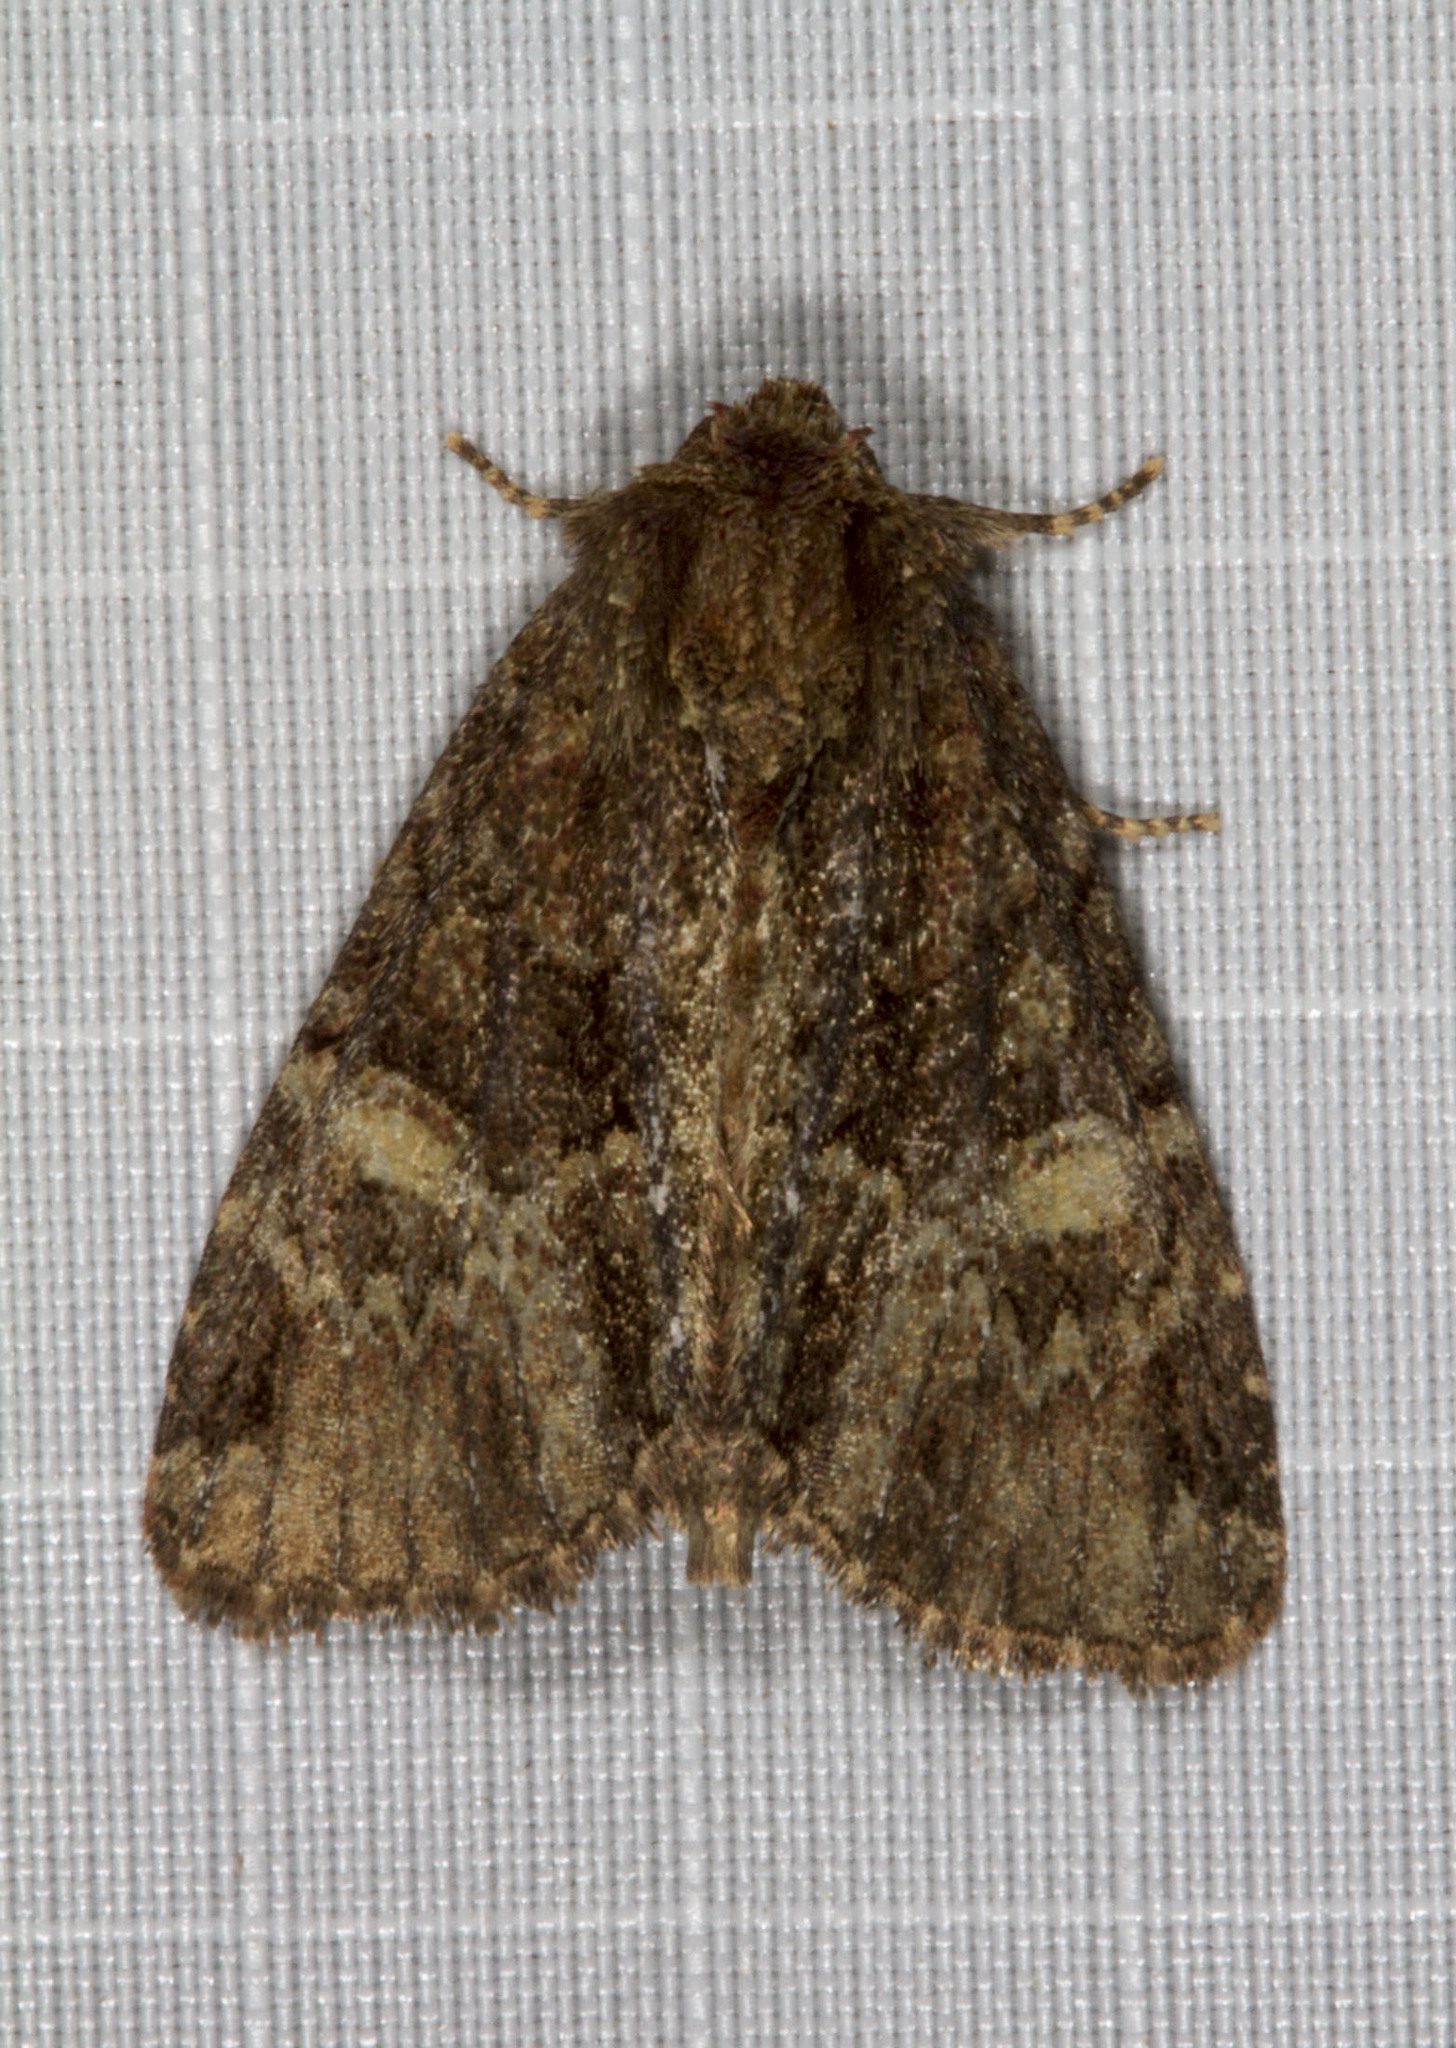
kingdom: Animalia
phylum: Arthropoda
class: Insecta
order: Lepidoptera
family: Noctuidae
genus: Phosphila
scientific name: Phosphila turbulenta
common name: Turbulent phosphila moth
